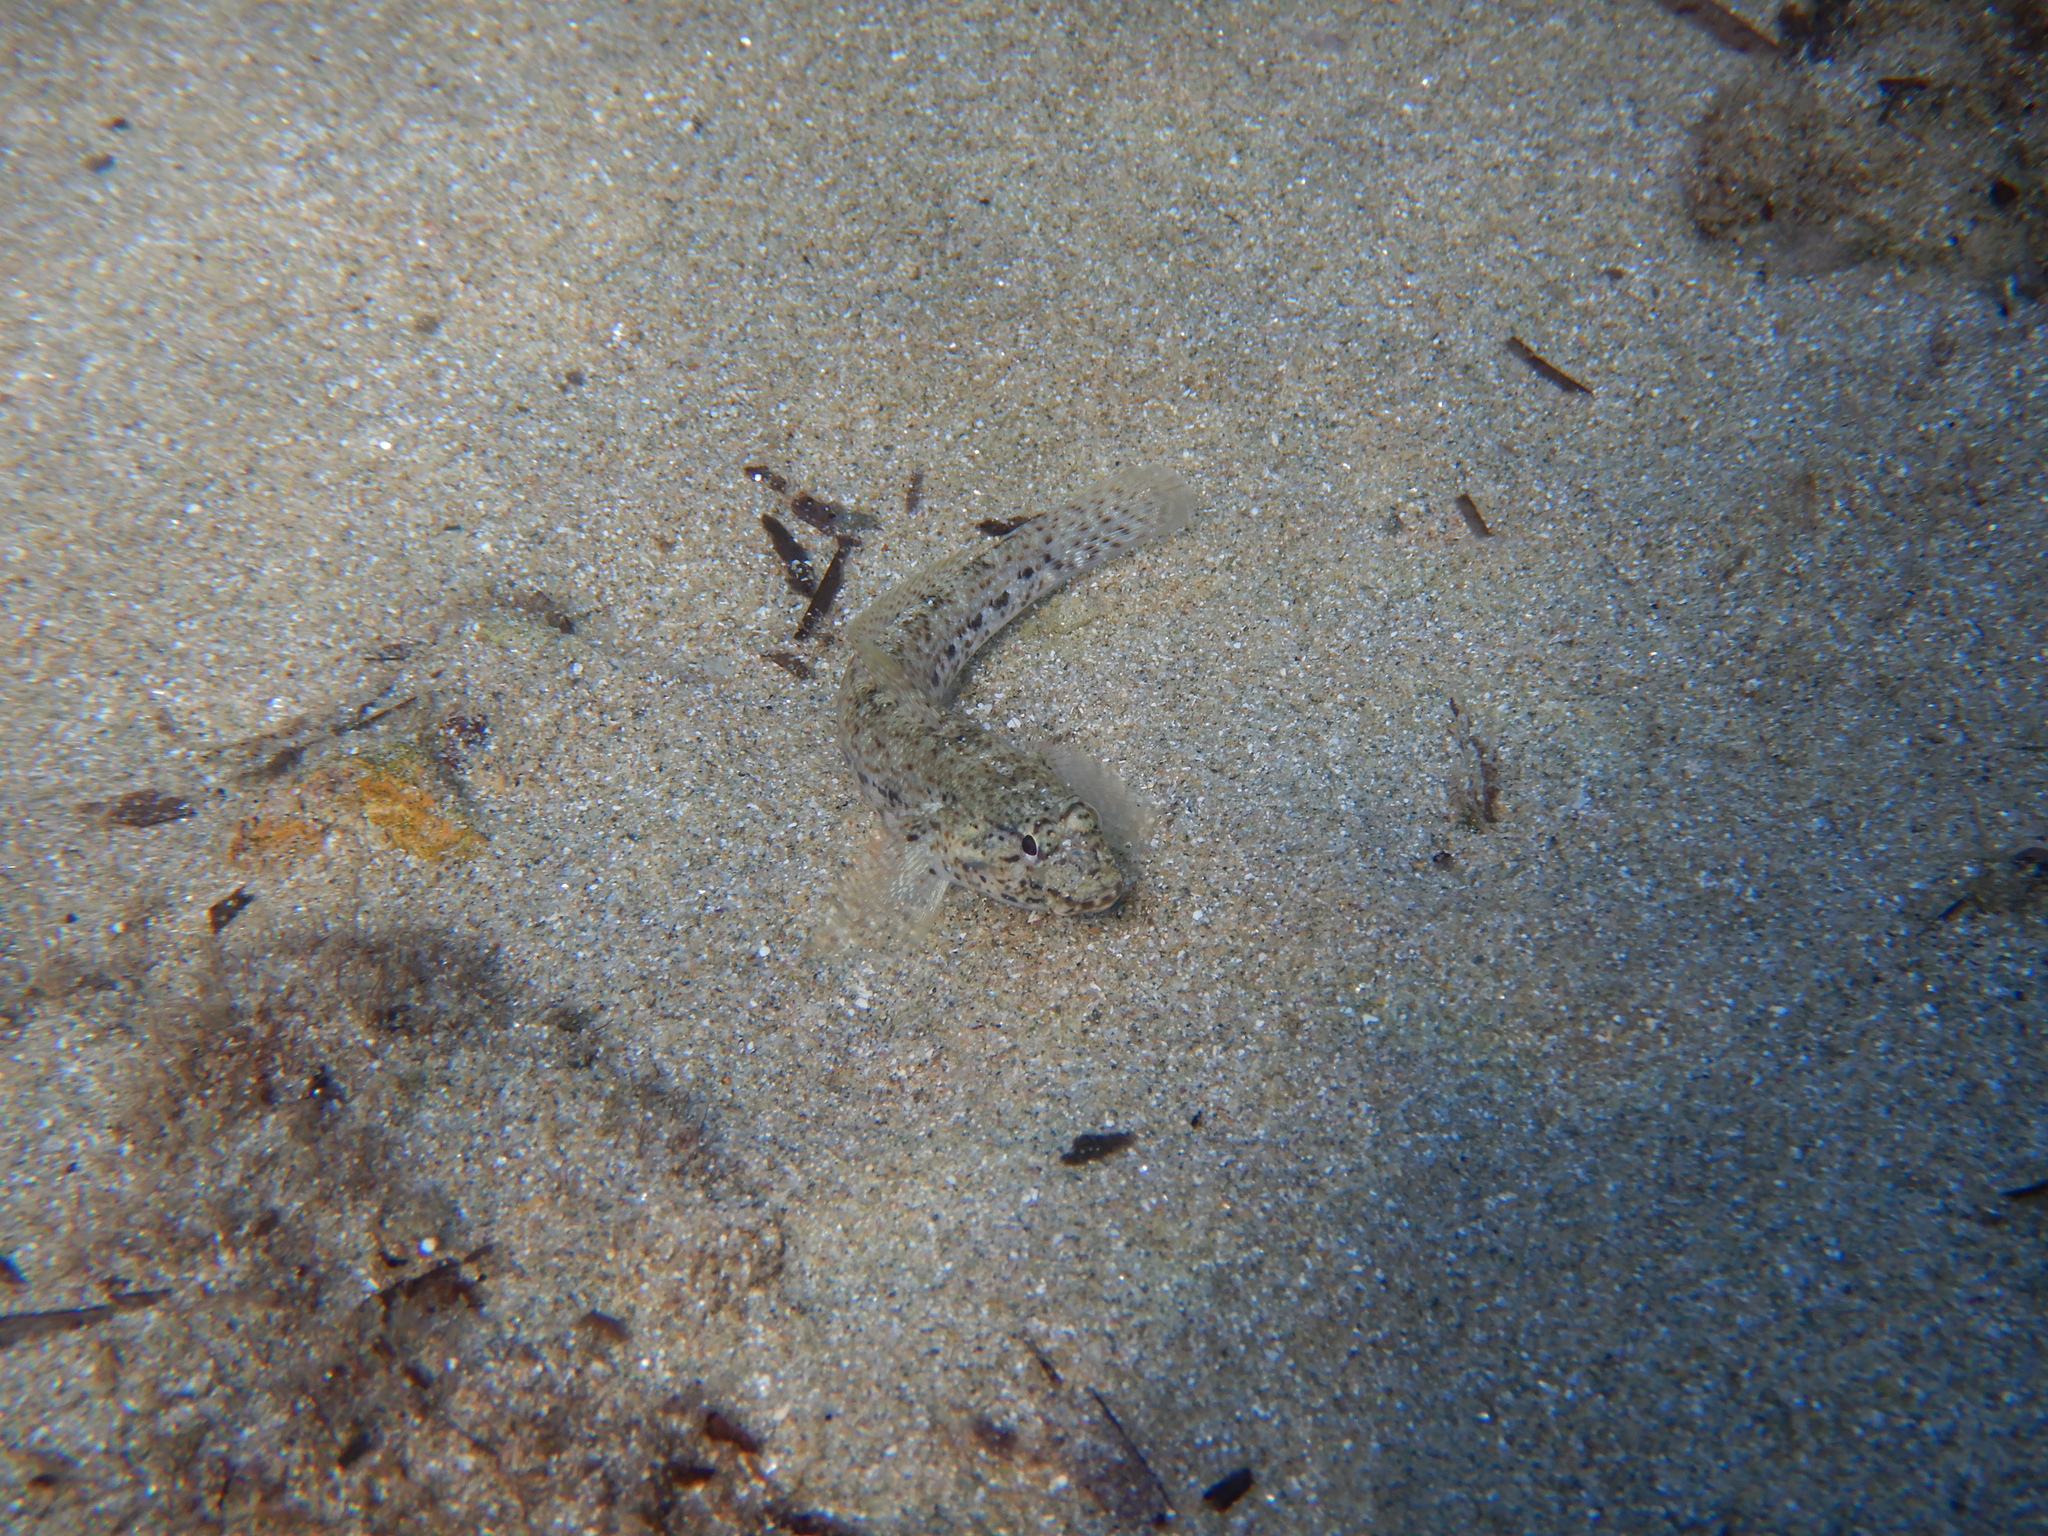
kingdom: Animalia
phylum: Chordata
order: Perciformes
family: Gobiidae
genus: Gobius
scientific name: Gobius incognitus
